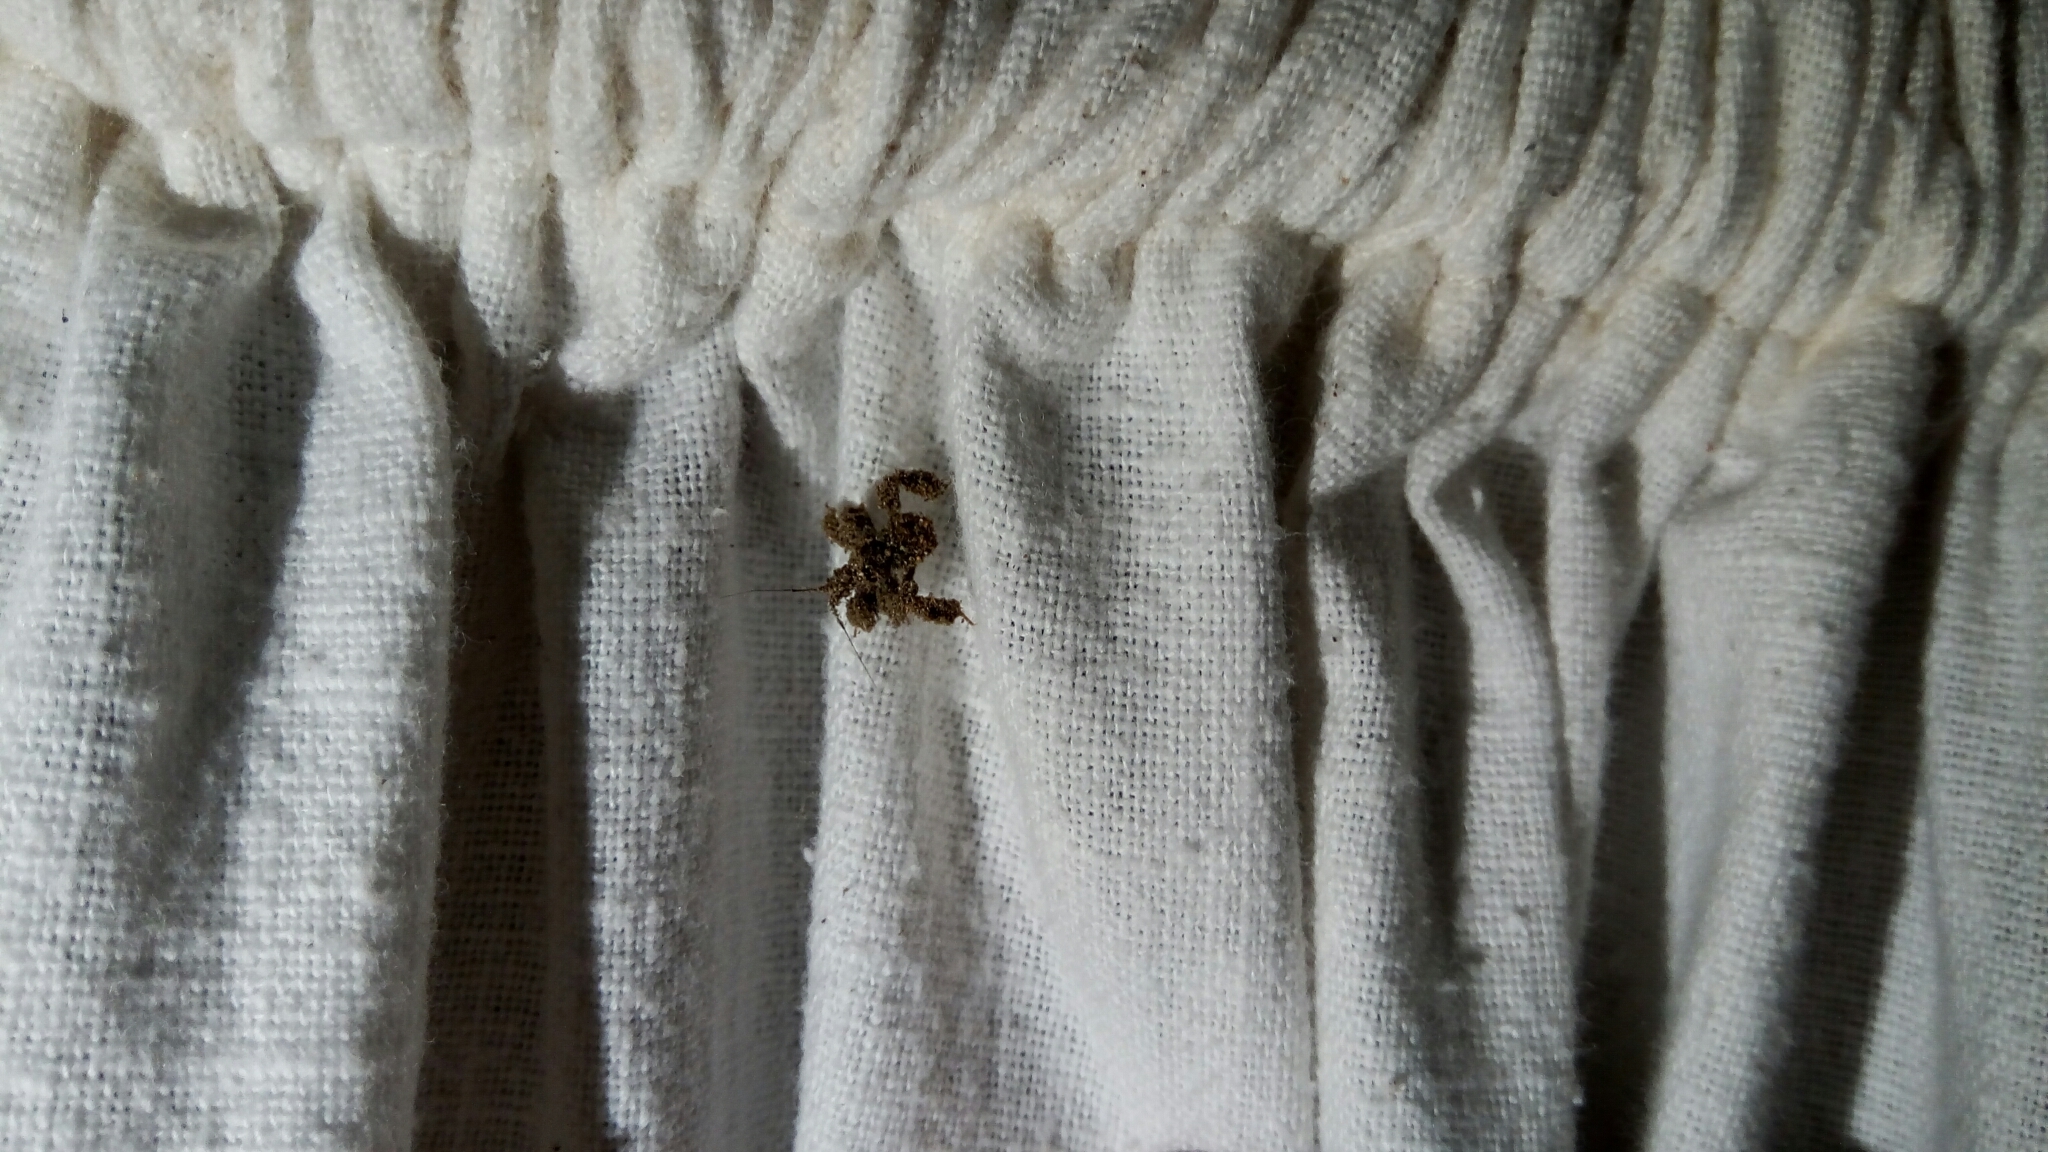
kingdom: Animalia
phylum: Arthropoda
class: Insecta
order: Hemiptera
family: Reduviidae
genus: Reduvius
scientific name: Reduvius personatus
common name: Masked hunter
